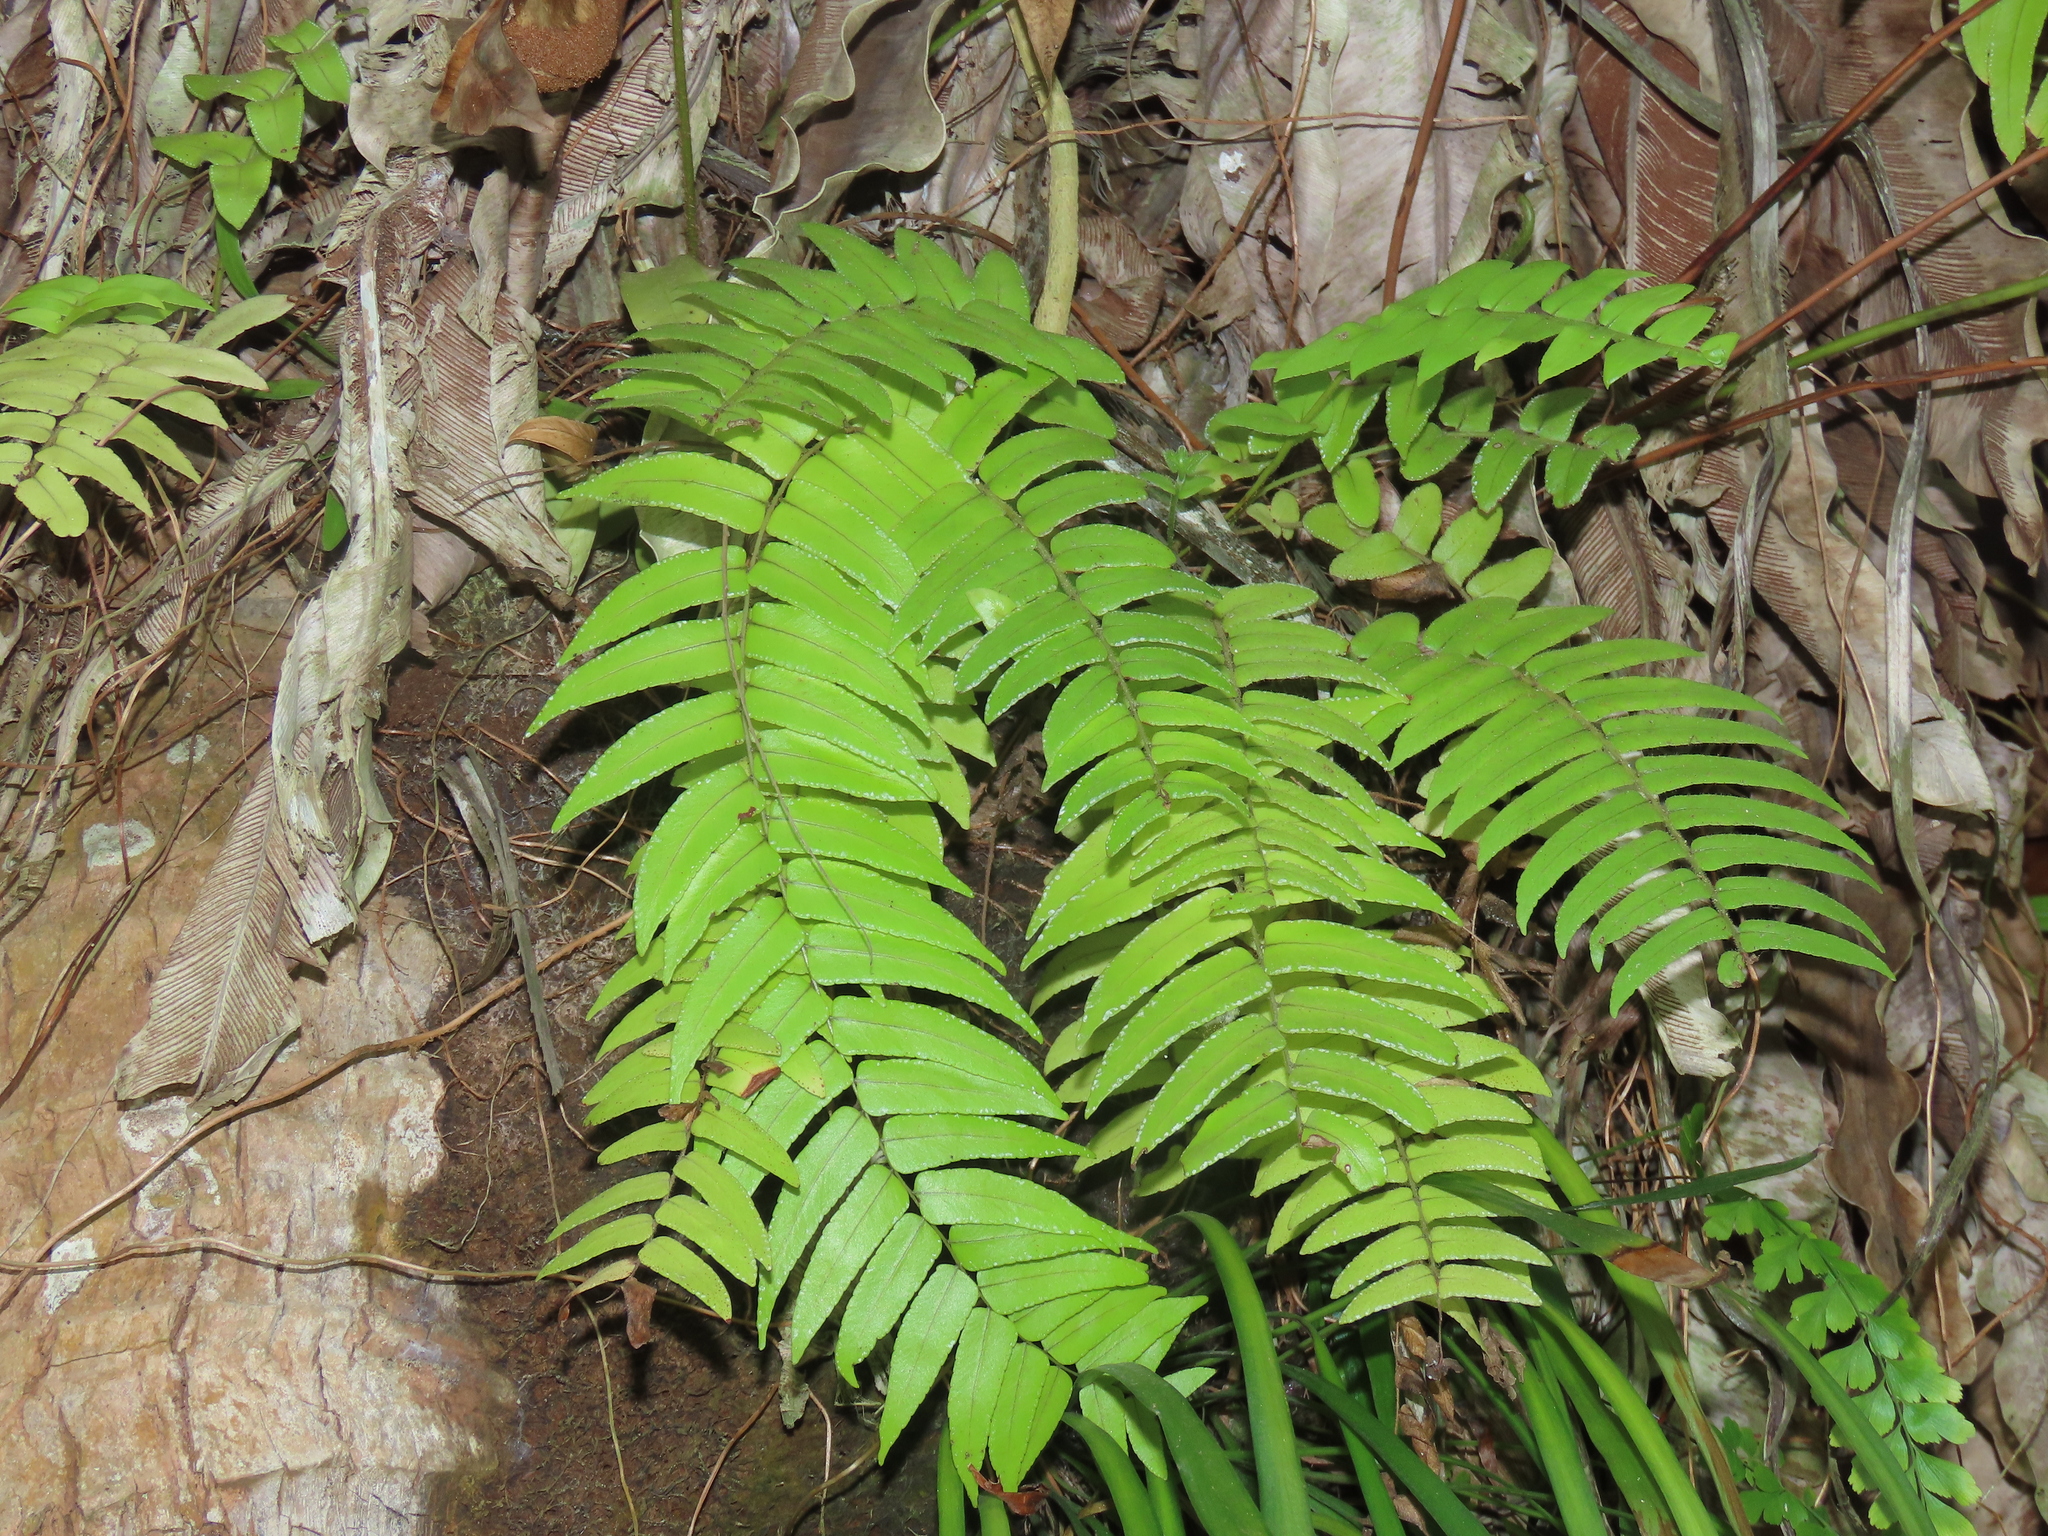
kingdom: Plantae
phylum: Tracheophyta
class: Polypodiopsida
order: Polypodiales
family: Nephrolepidaceae
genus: Nephrolepis
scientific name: Nephrolepis biserrata
